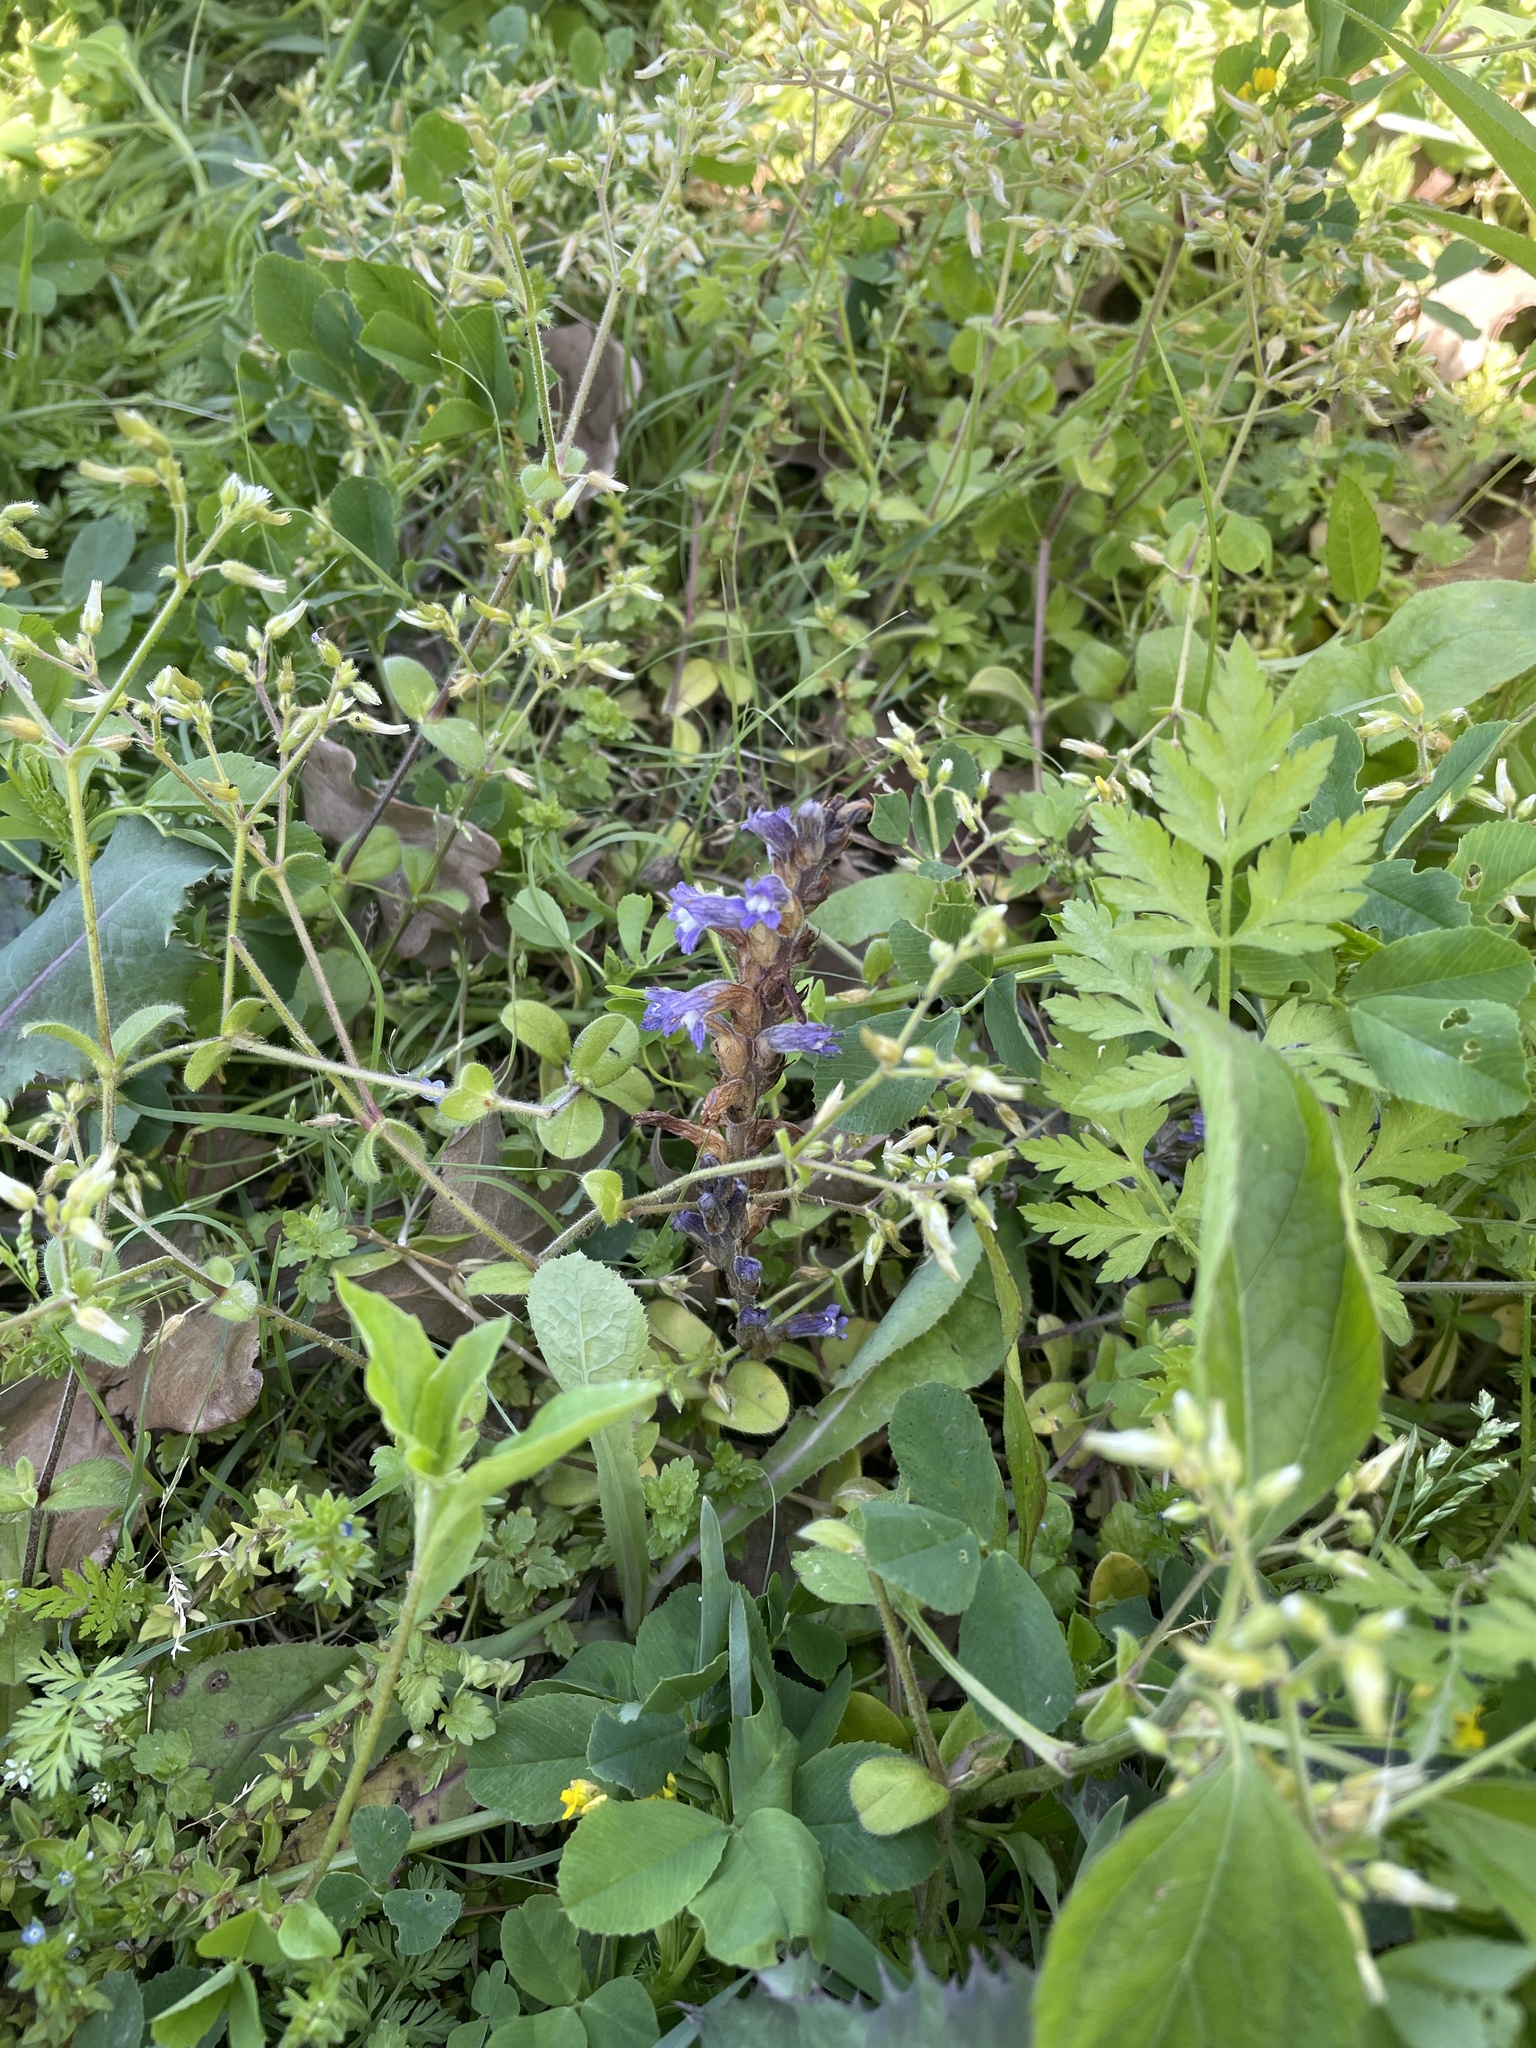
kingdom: Plantae
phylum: Tracheophyta
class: Magnoliopsida
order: Lamiales
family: Orobanchaceae
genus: Phelipanche
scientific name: Phelipanche mutelii
